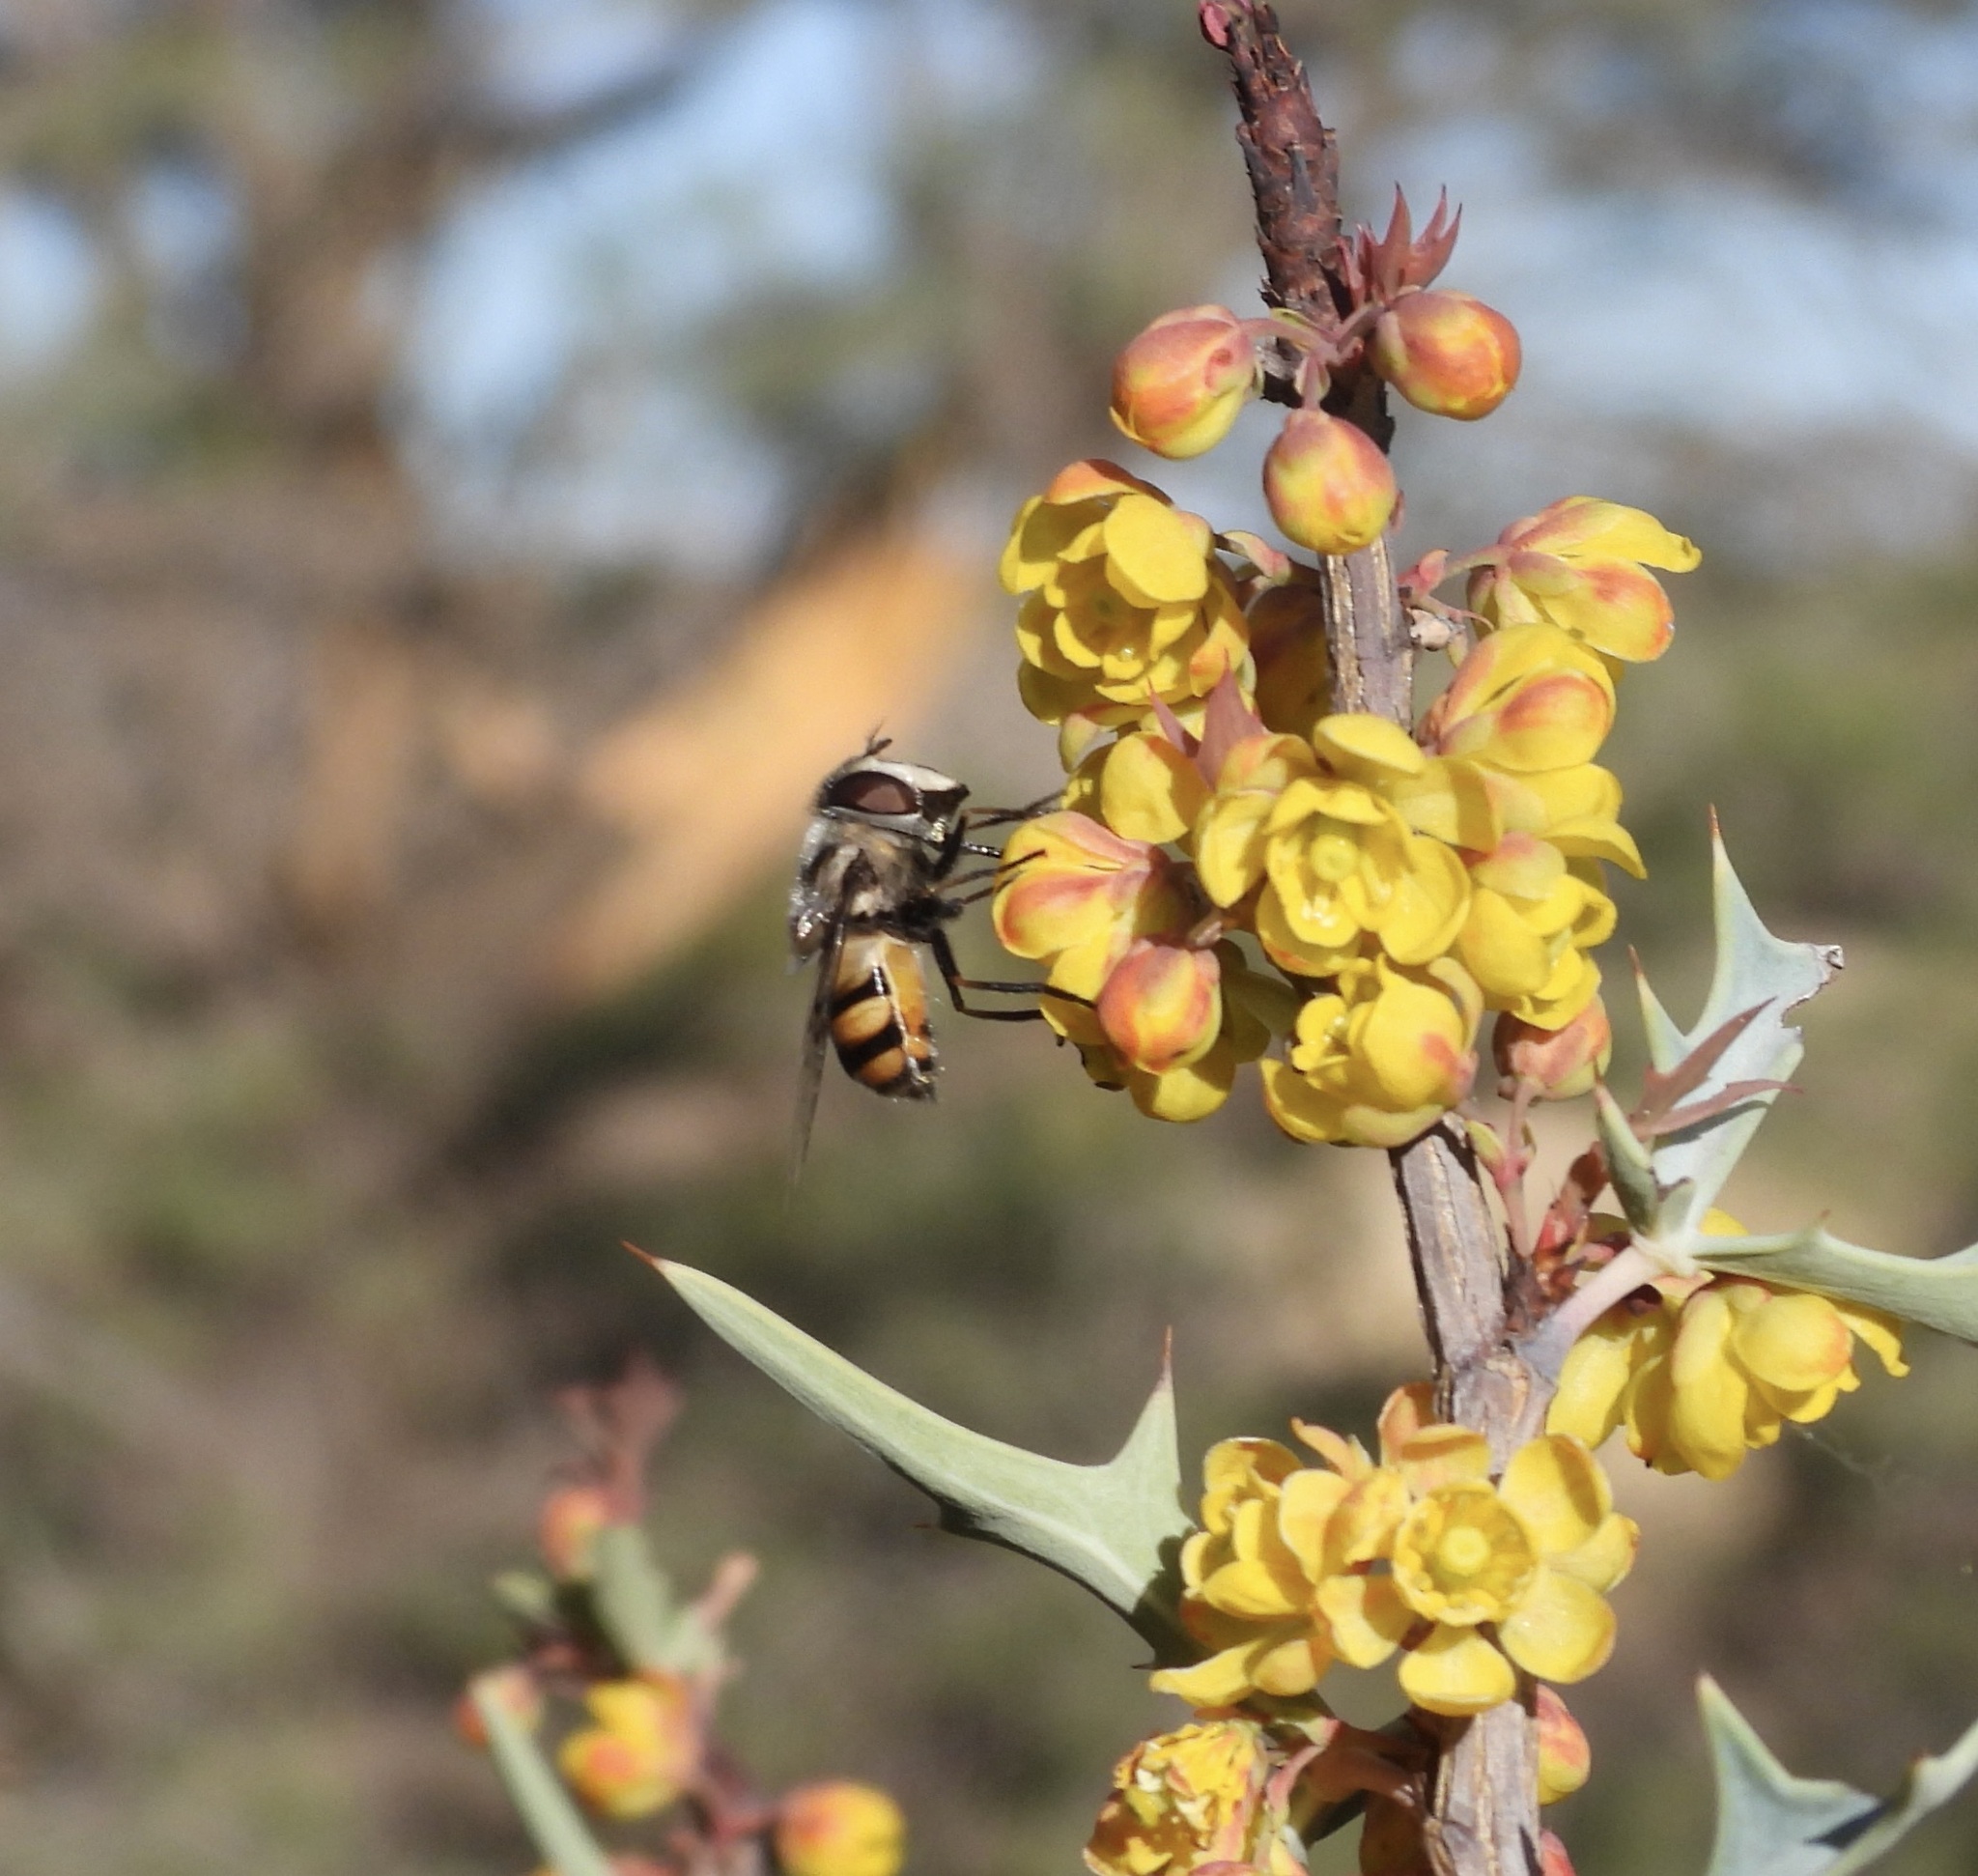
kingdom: Animalia
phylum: Arthropoda
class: Insecta
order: Diptera
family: Syrphidae
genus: Copestylum
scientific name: Copestylum avidum
